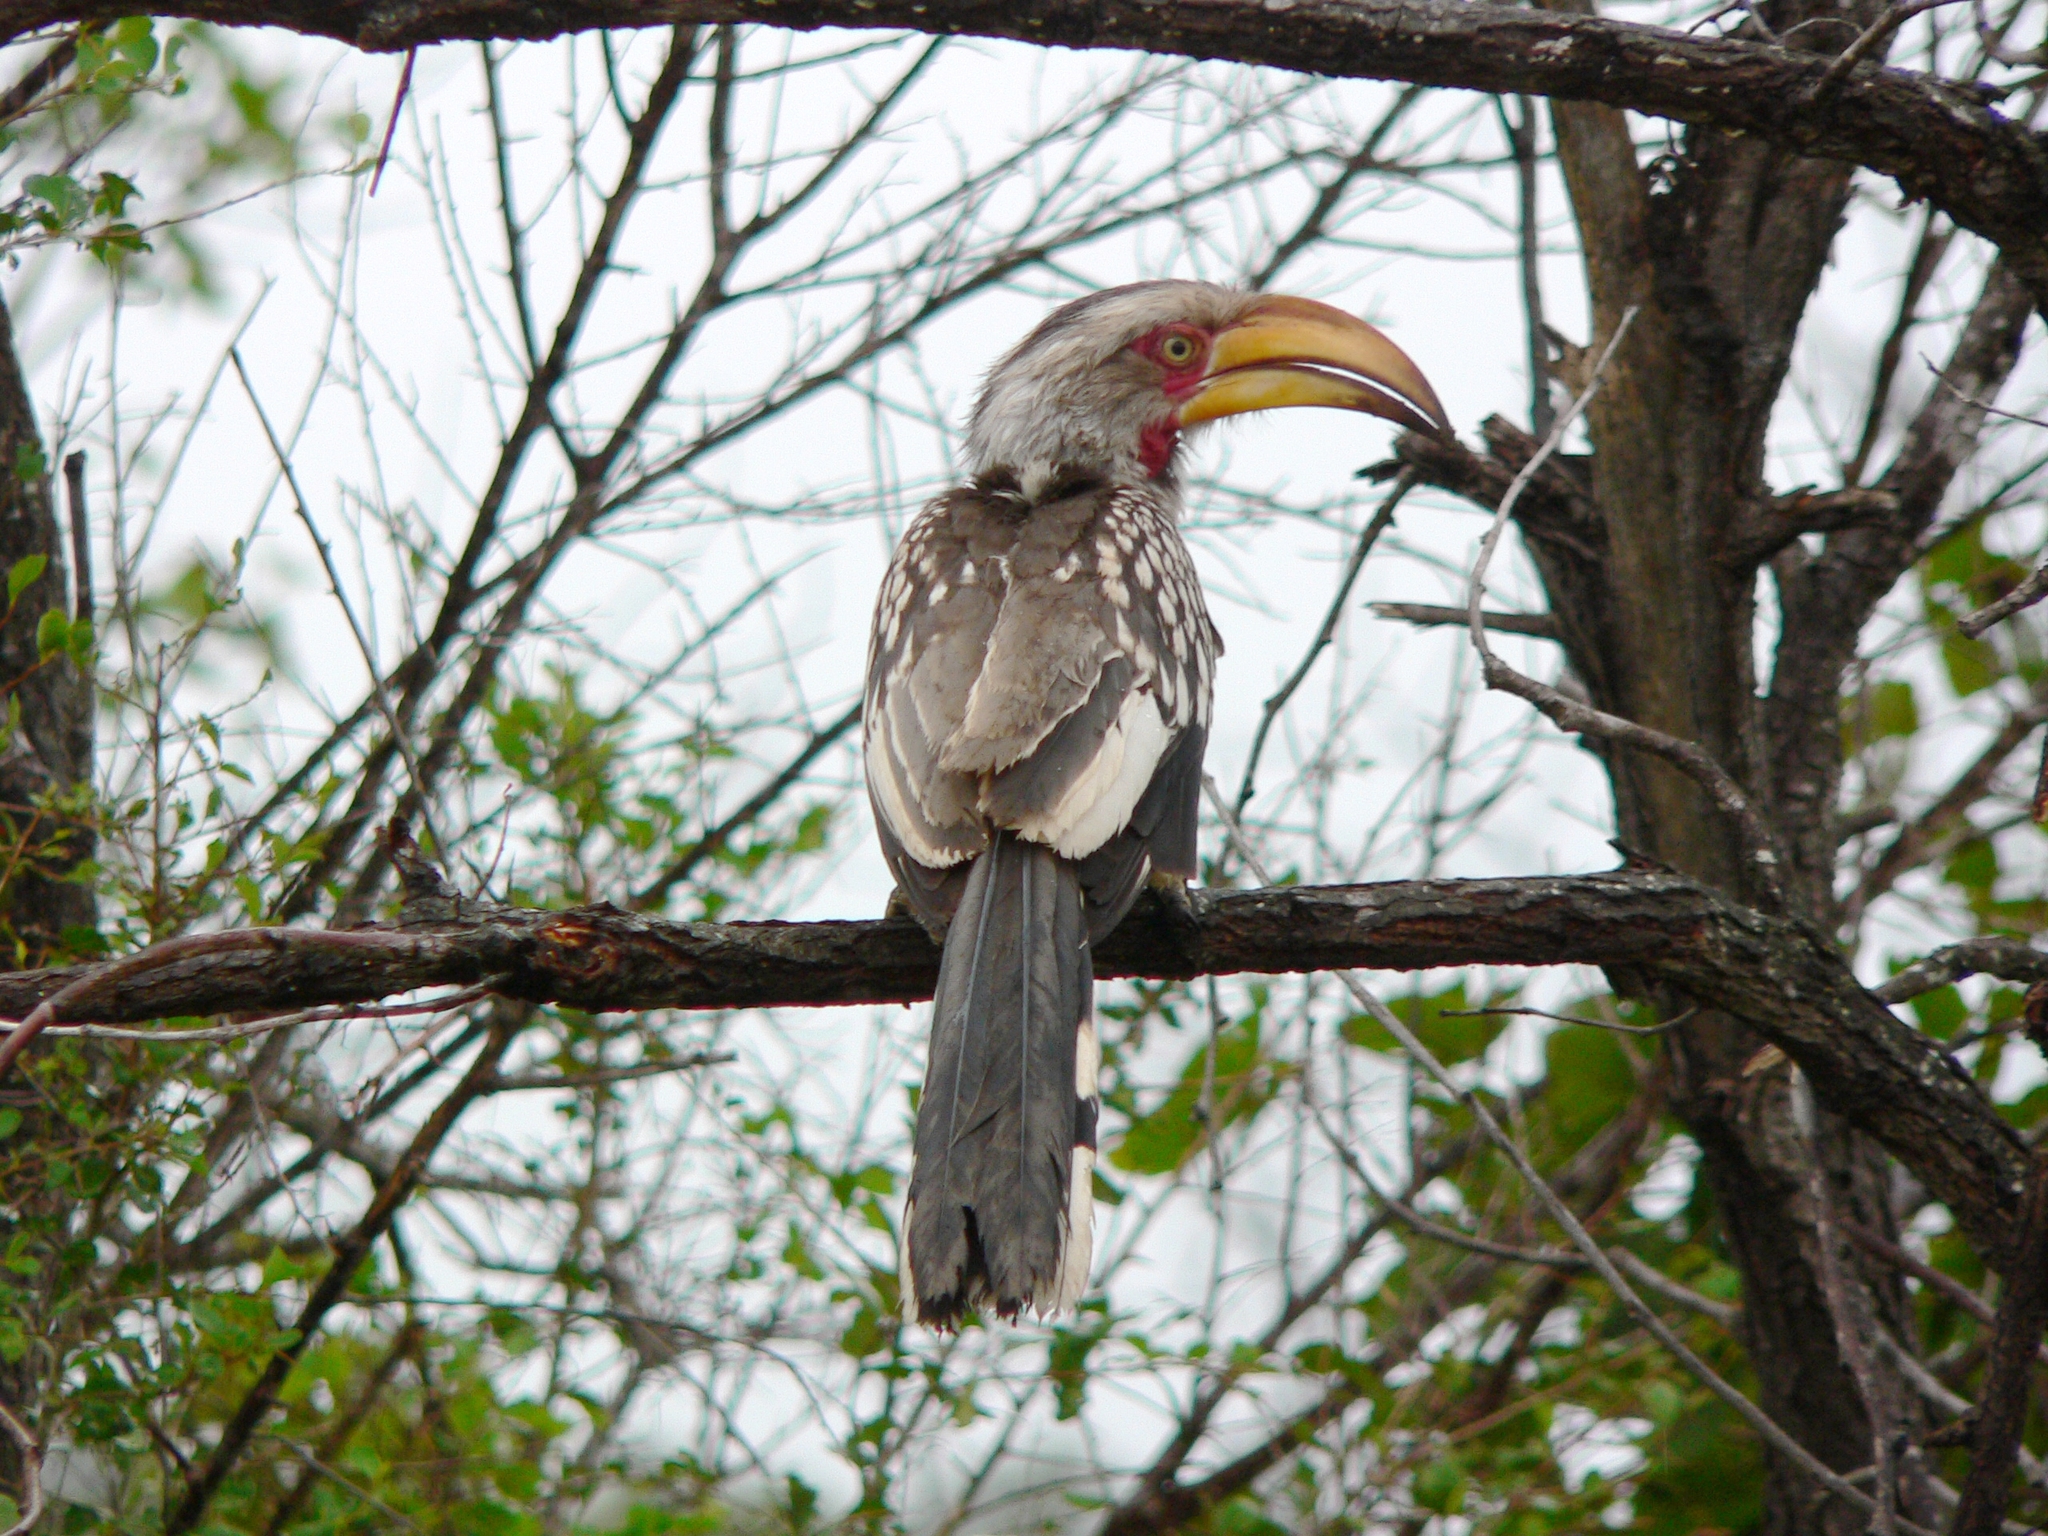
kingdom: Animalia
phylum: Chordata
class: Aves
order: Bucerotiformes
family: Bucerotidae
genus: Tockus
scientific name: Tockus leucomelas
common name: Southern yellow-billed hornbill
